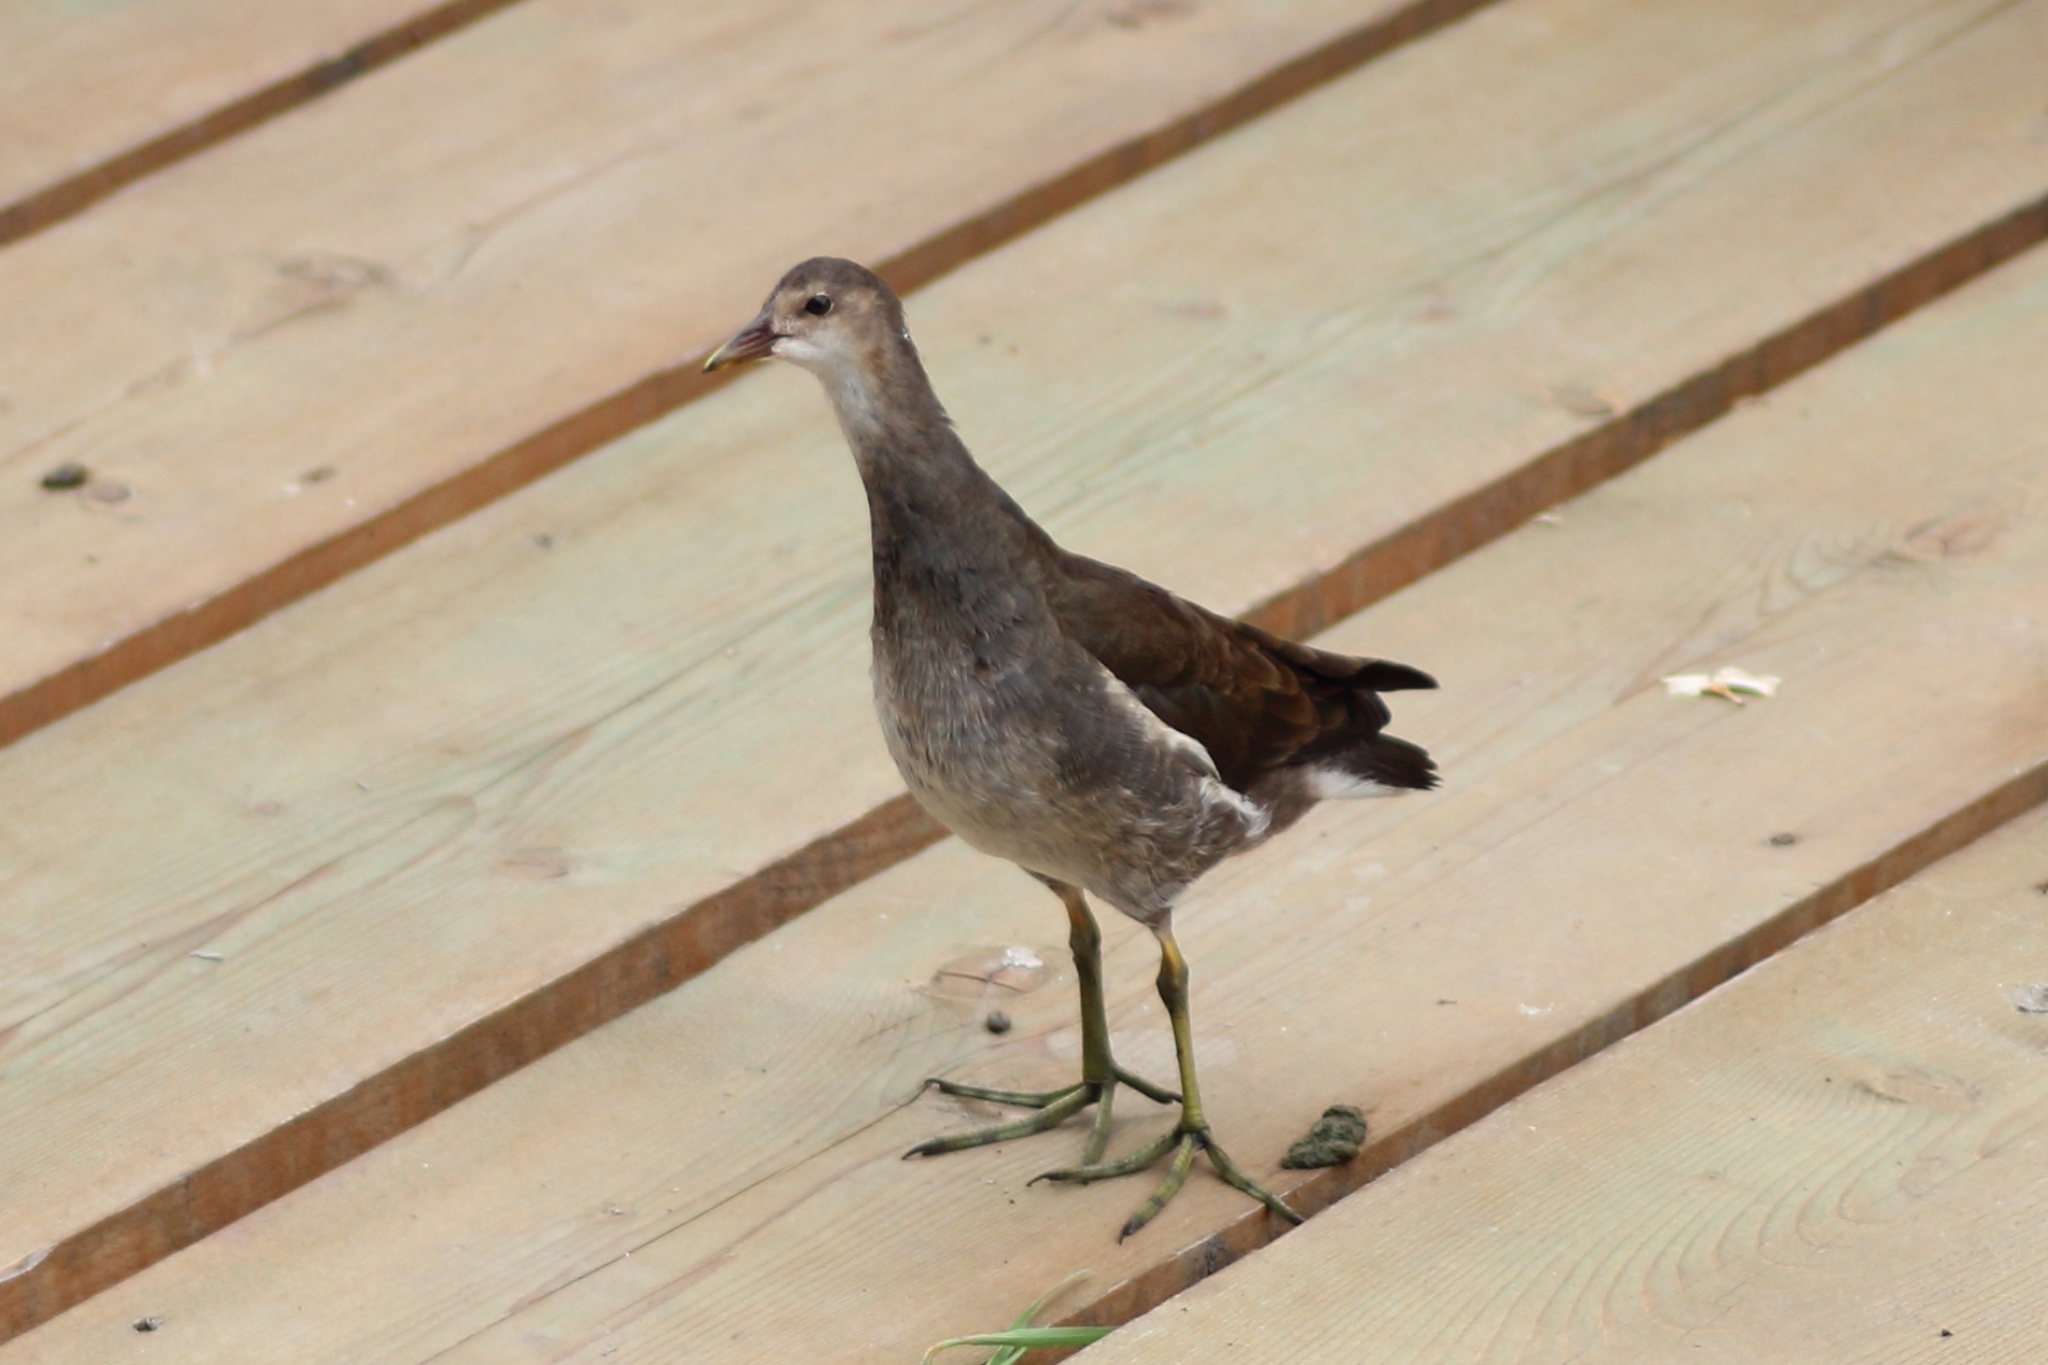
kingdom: Animalia
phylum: Chordata
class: Aves
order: Gruiformes
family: Rallidae
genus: Gallinula
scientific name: Gallinula chloropus
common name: Common moorhen
